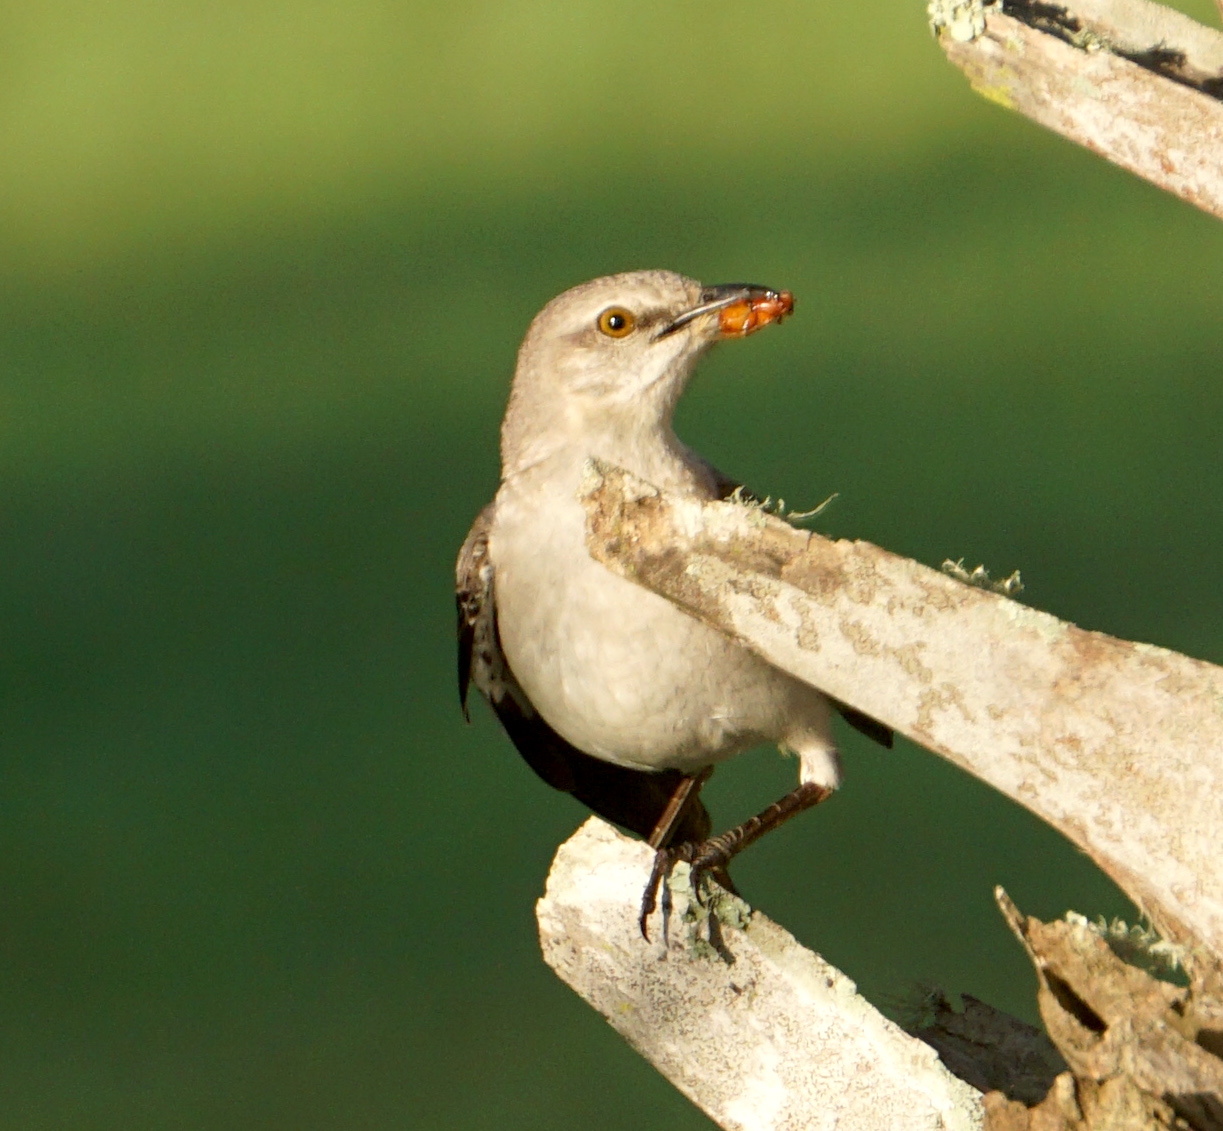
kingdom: Animalia
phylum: Chordata
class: Aves
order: Passeriformes
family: Mimidae
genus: Mimus
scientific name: Mimus polyglottos
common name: Northern mockingbird
